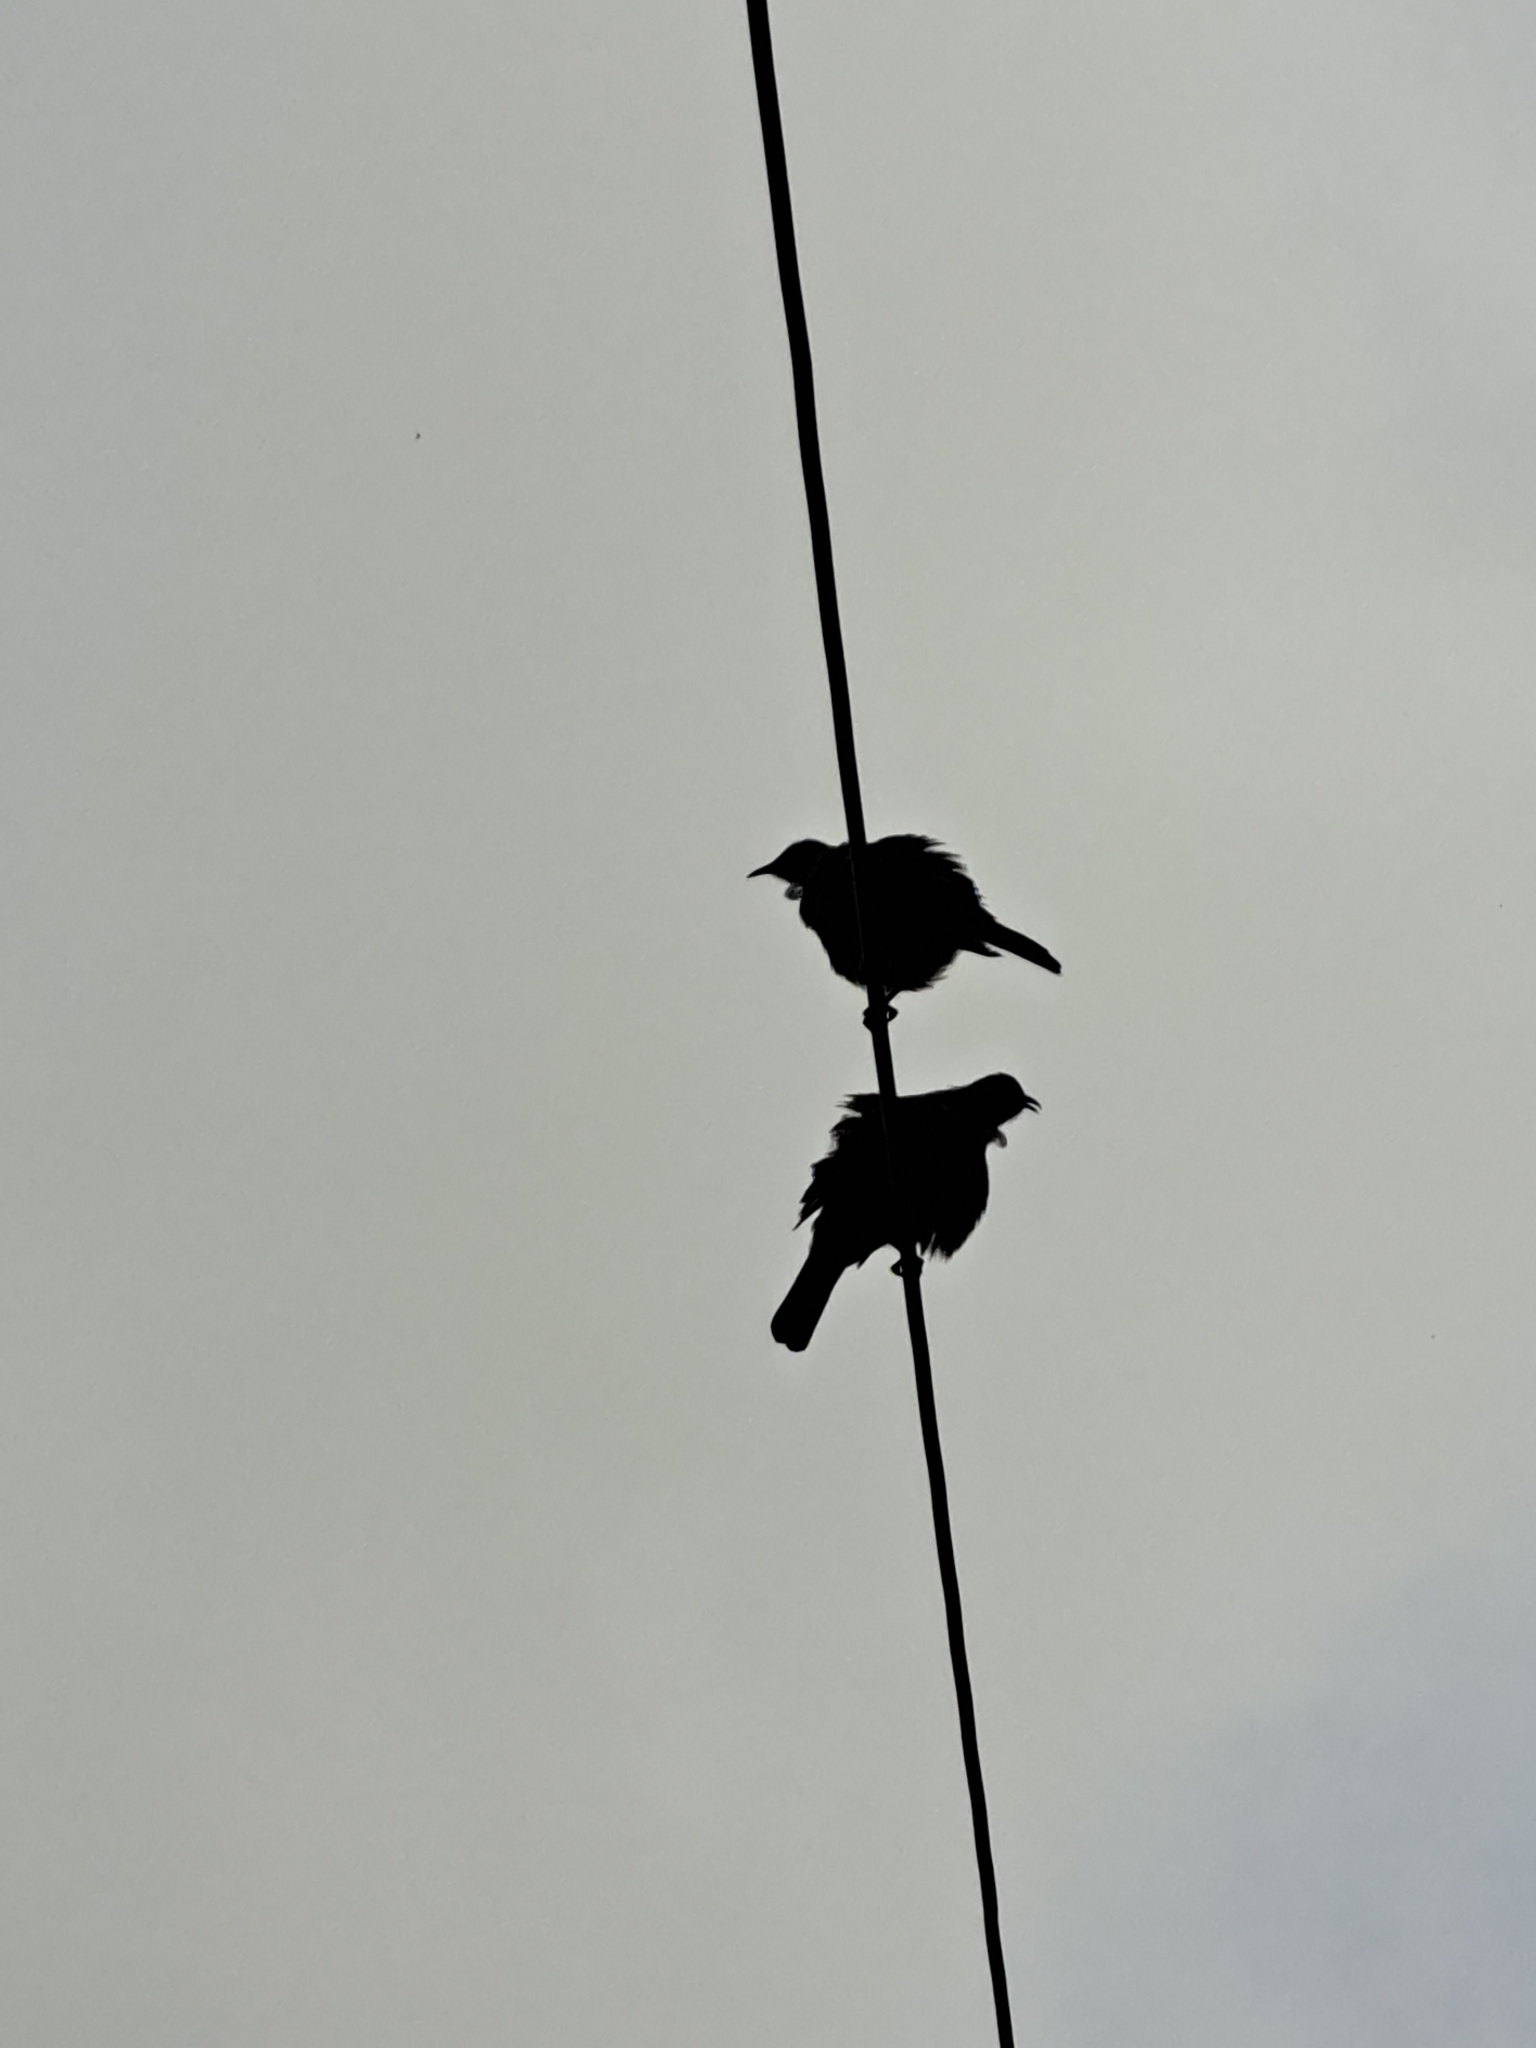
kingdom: Animalia
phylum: Chordata
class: Aves
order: Passeriformes
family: Meliphagidae
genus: Prosthemadera
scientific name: Prosthemadera novaeseelandiae
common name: Tui
